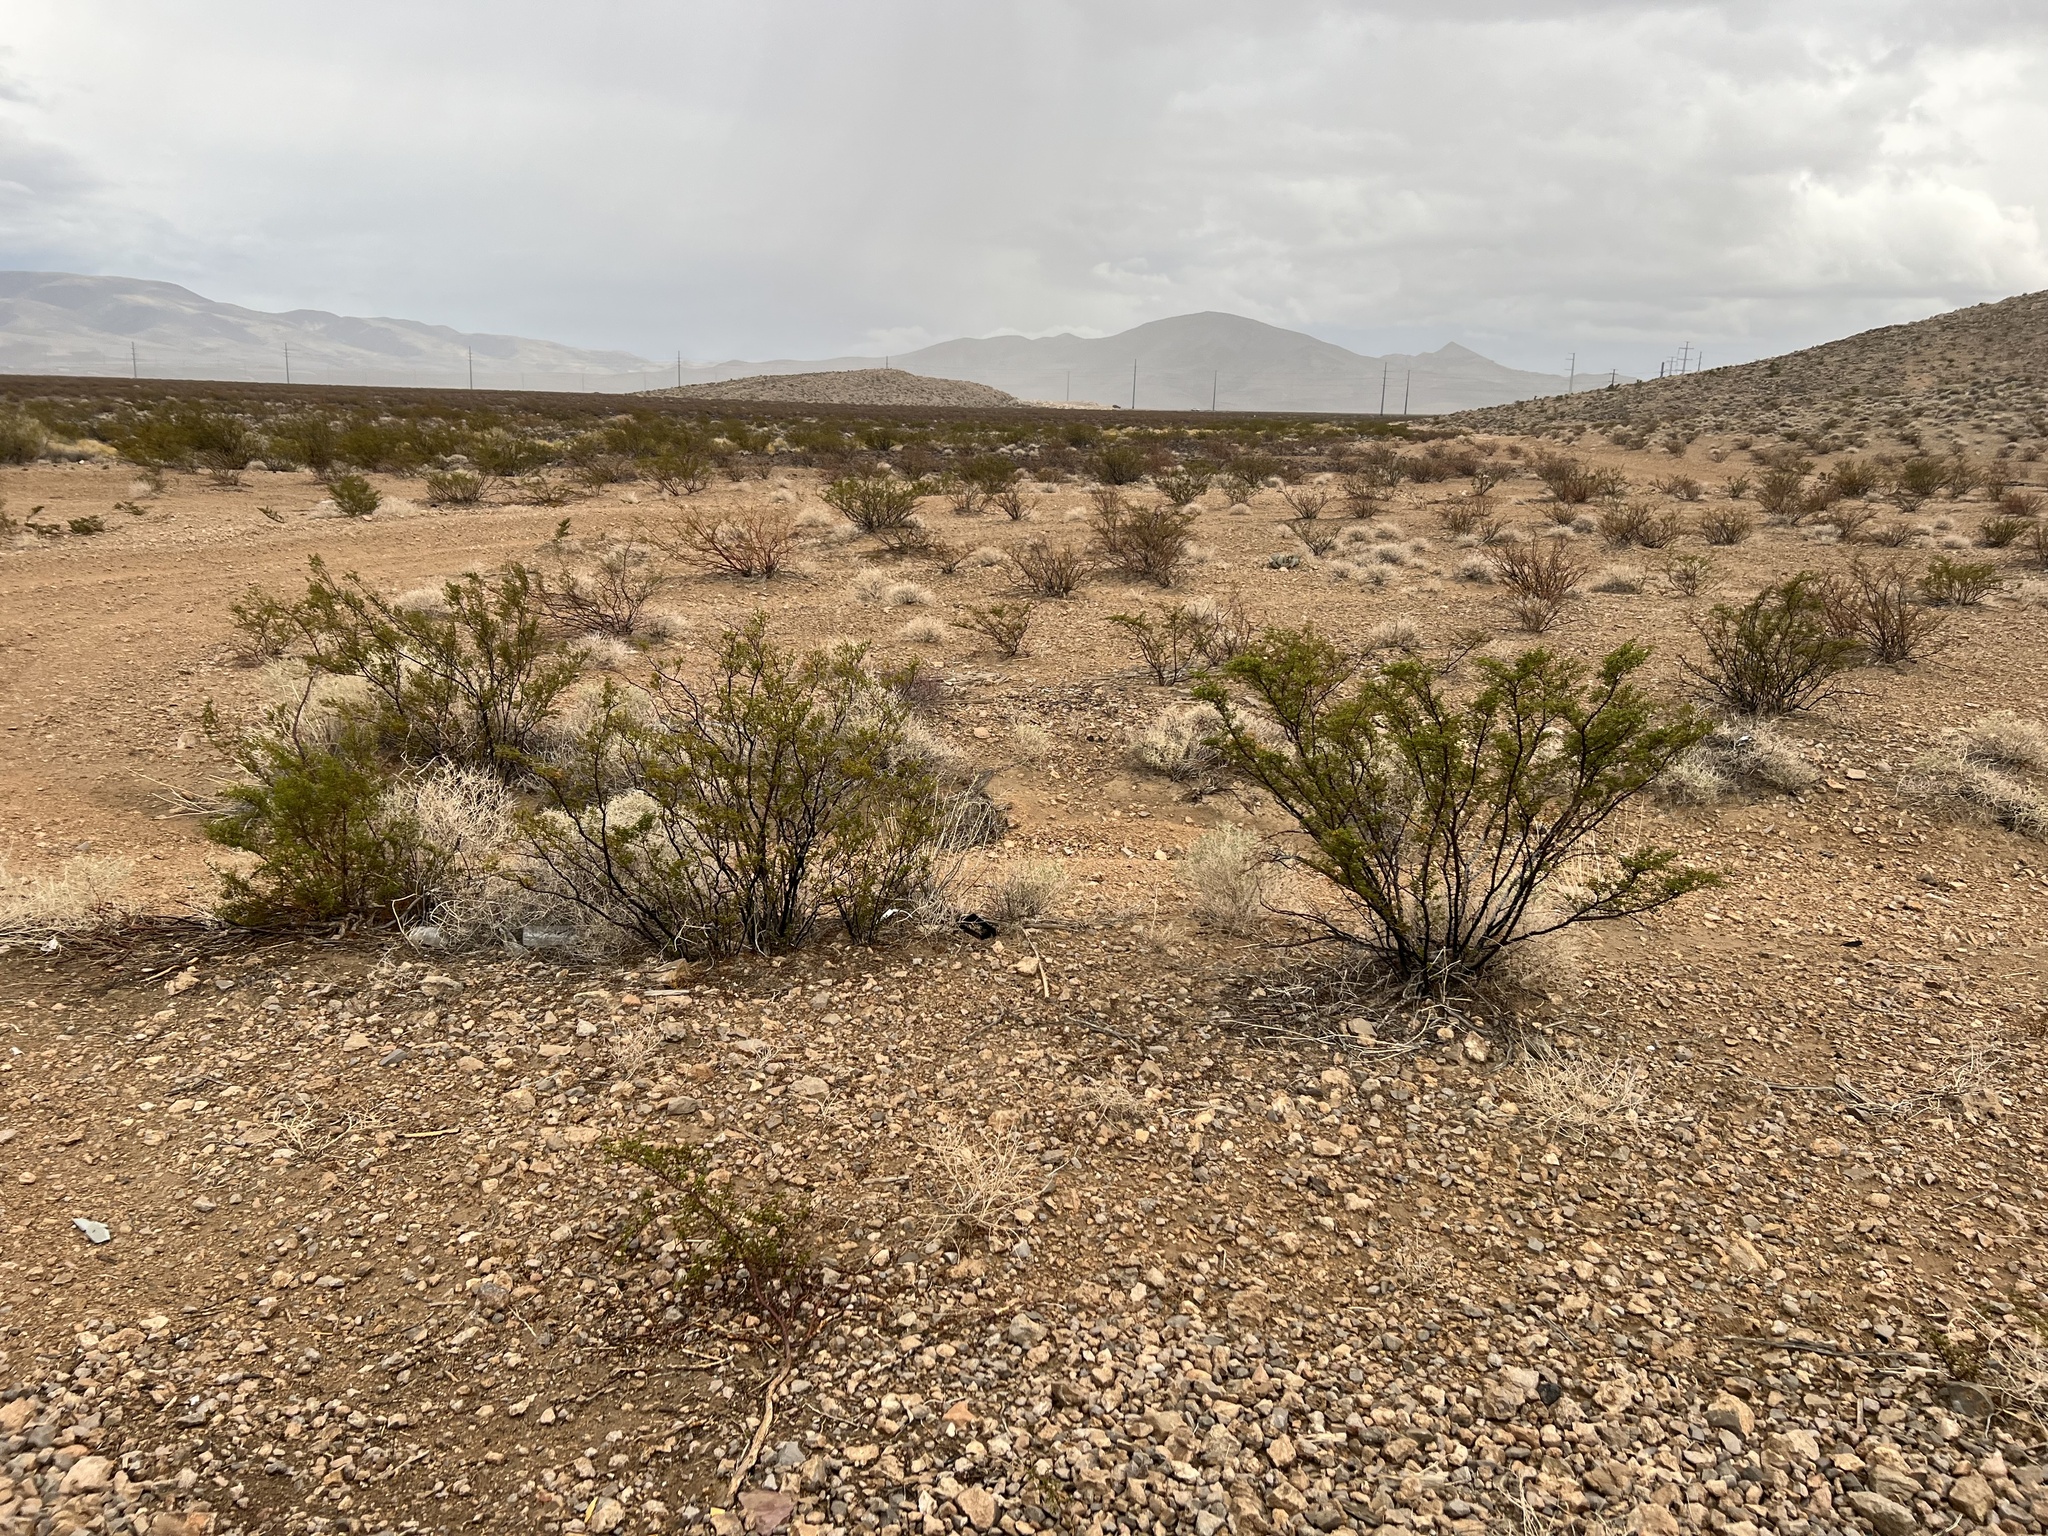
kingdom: Plantae
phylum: Tracheophyta
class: Magnoliopsida
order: Zygophyllales
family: Zygophyllaceae
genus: Larrea
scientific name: Larrea tridentata
